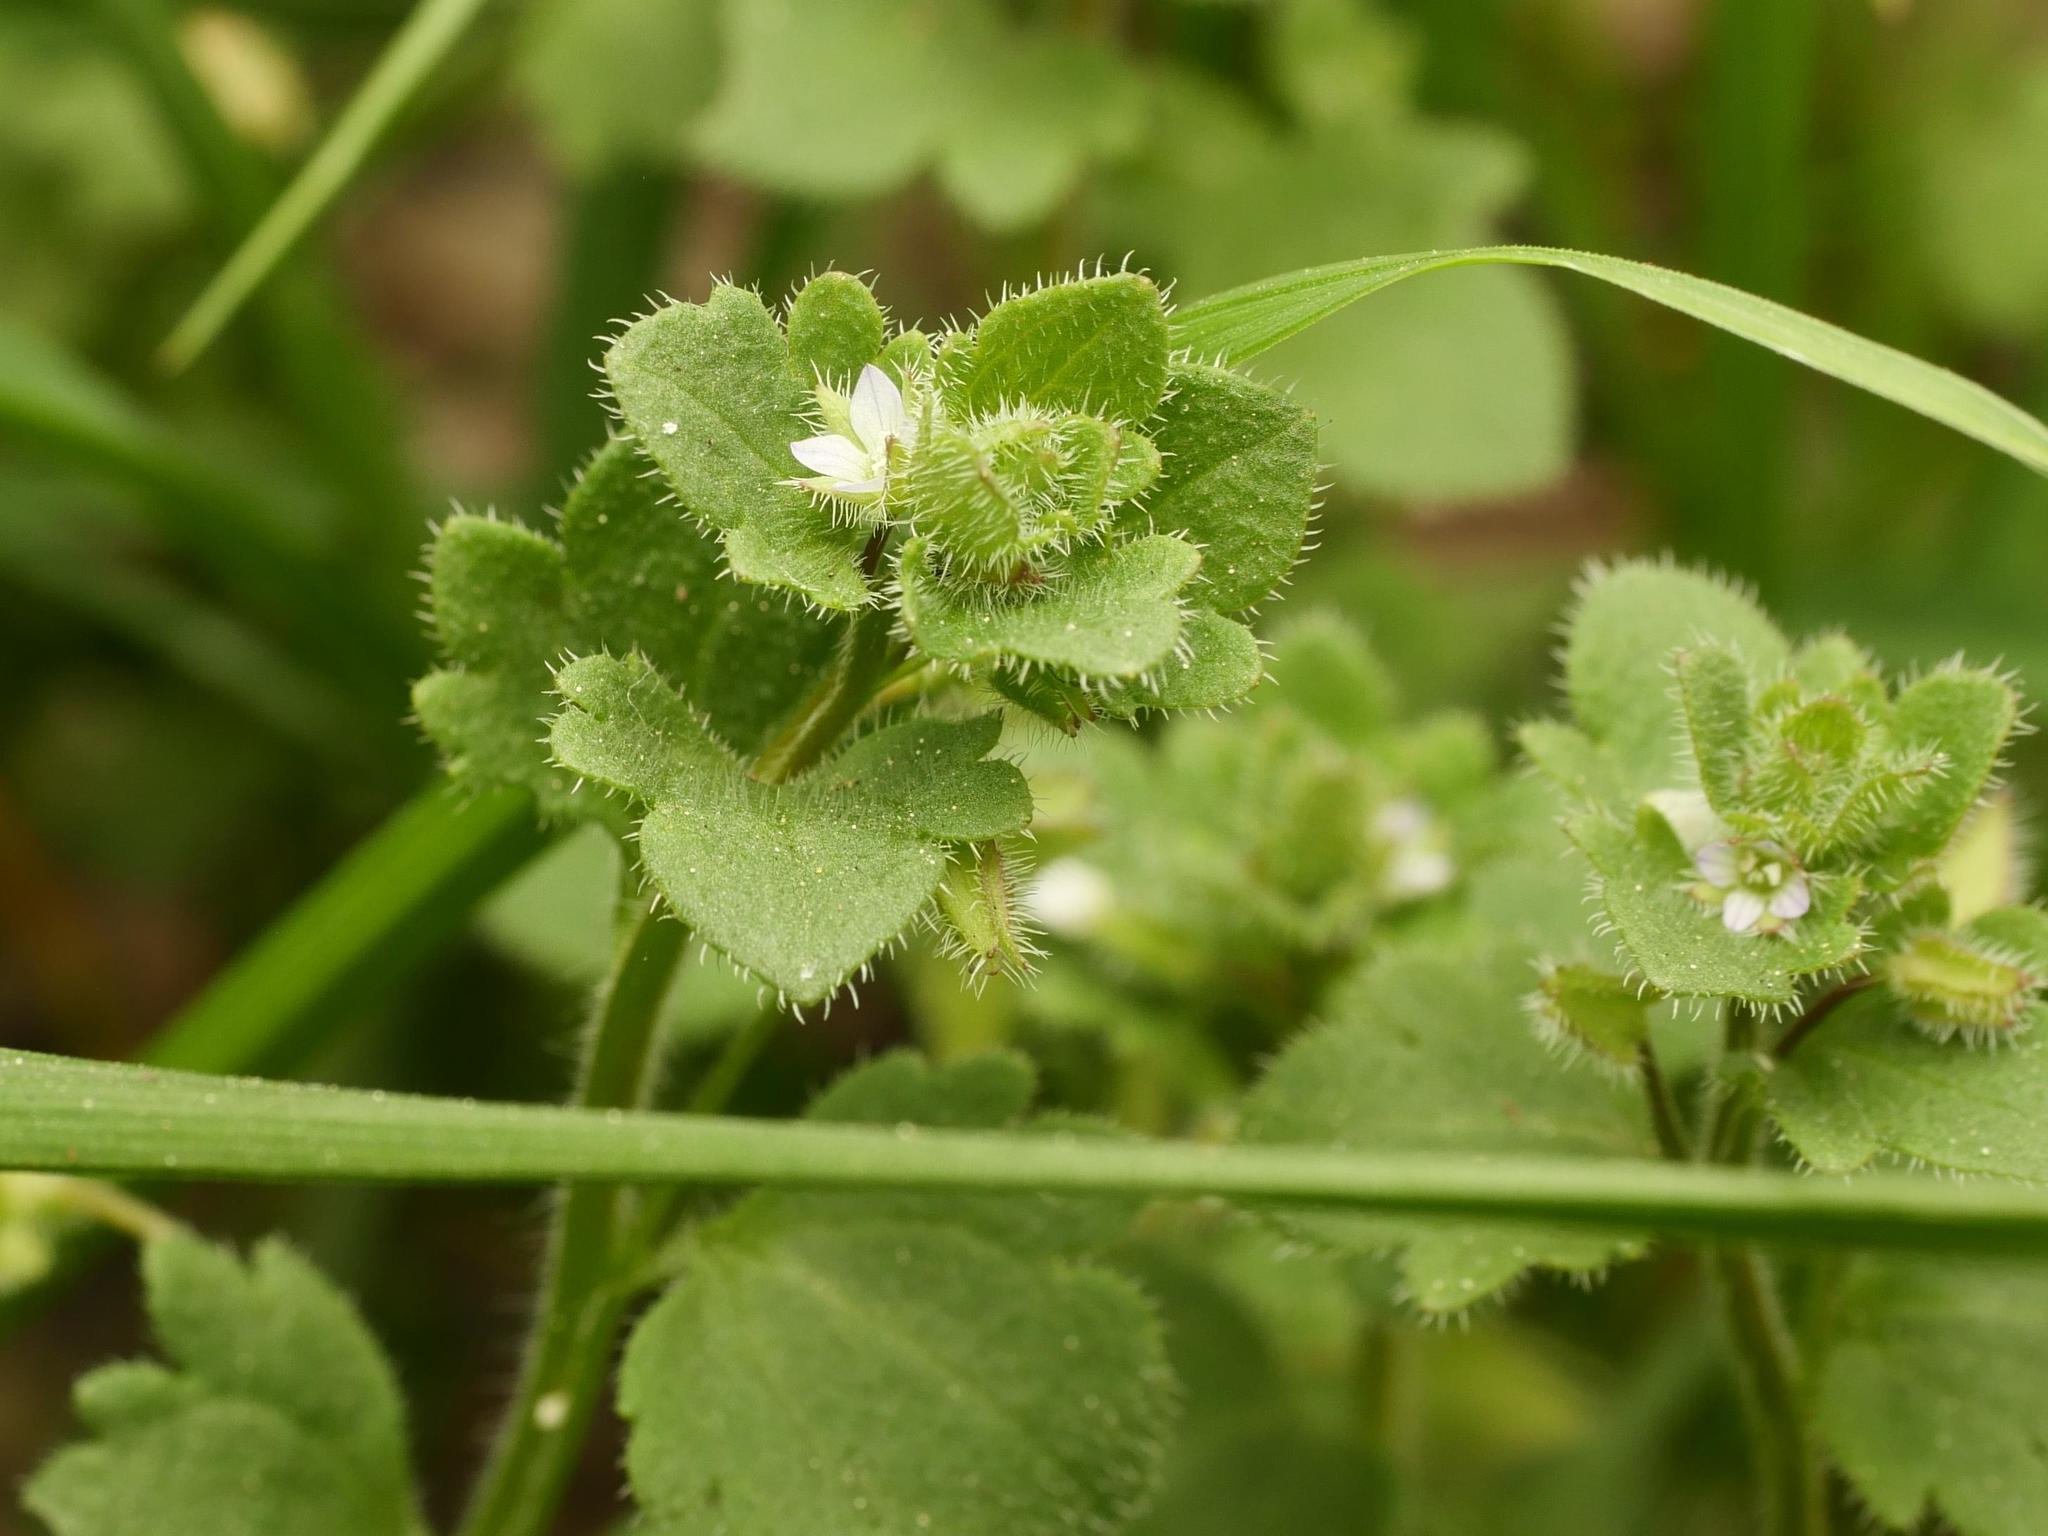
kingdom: Plantae
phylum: Tracheophyta
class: Magnoliopsida
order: Lamiales
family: Plantaginaceae
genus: Veronica
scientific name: Veronica sublobata
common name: False ivy-leaved speedwell
